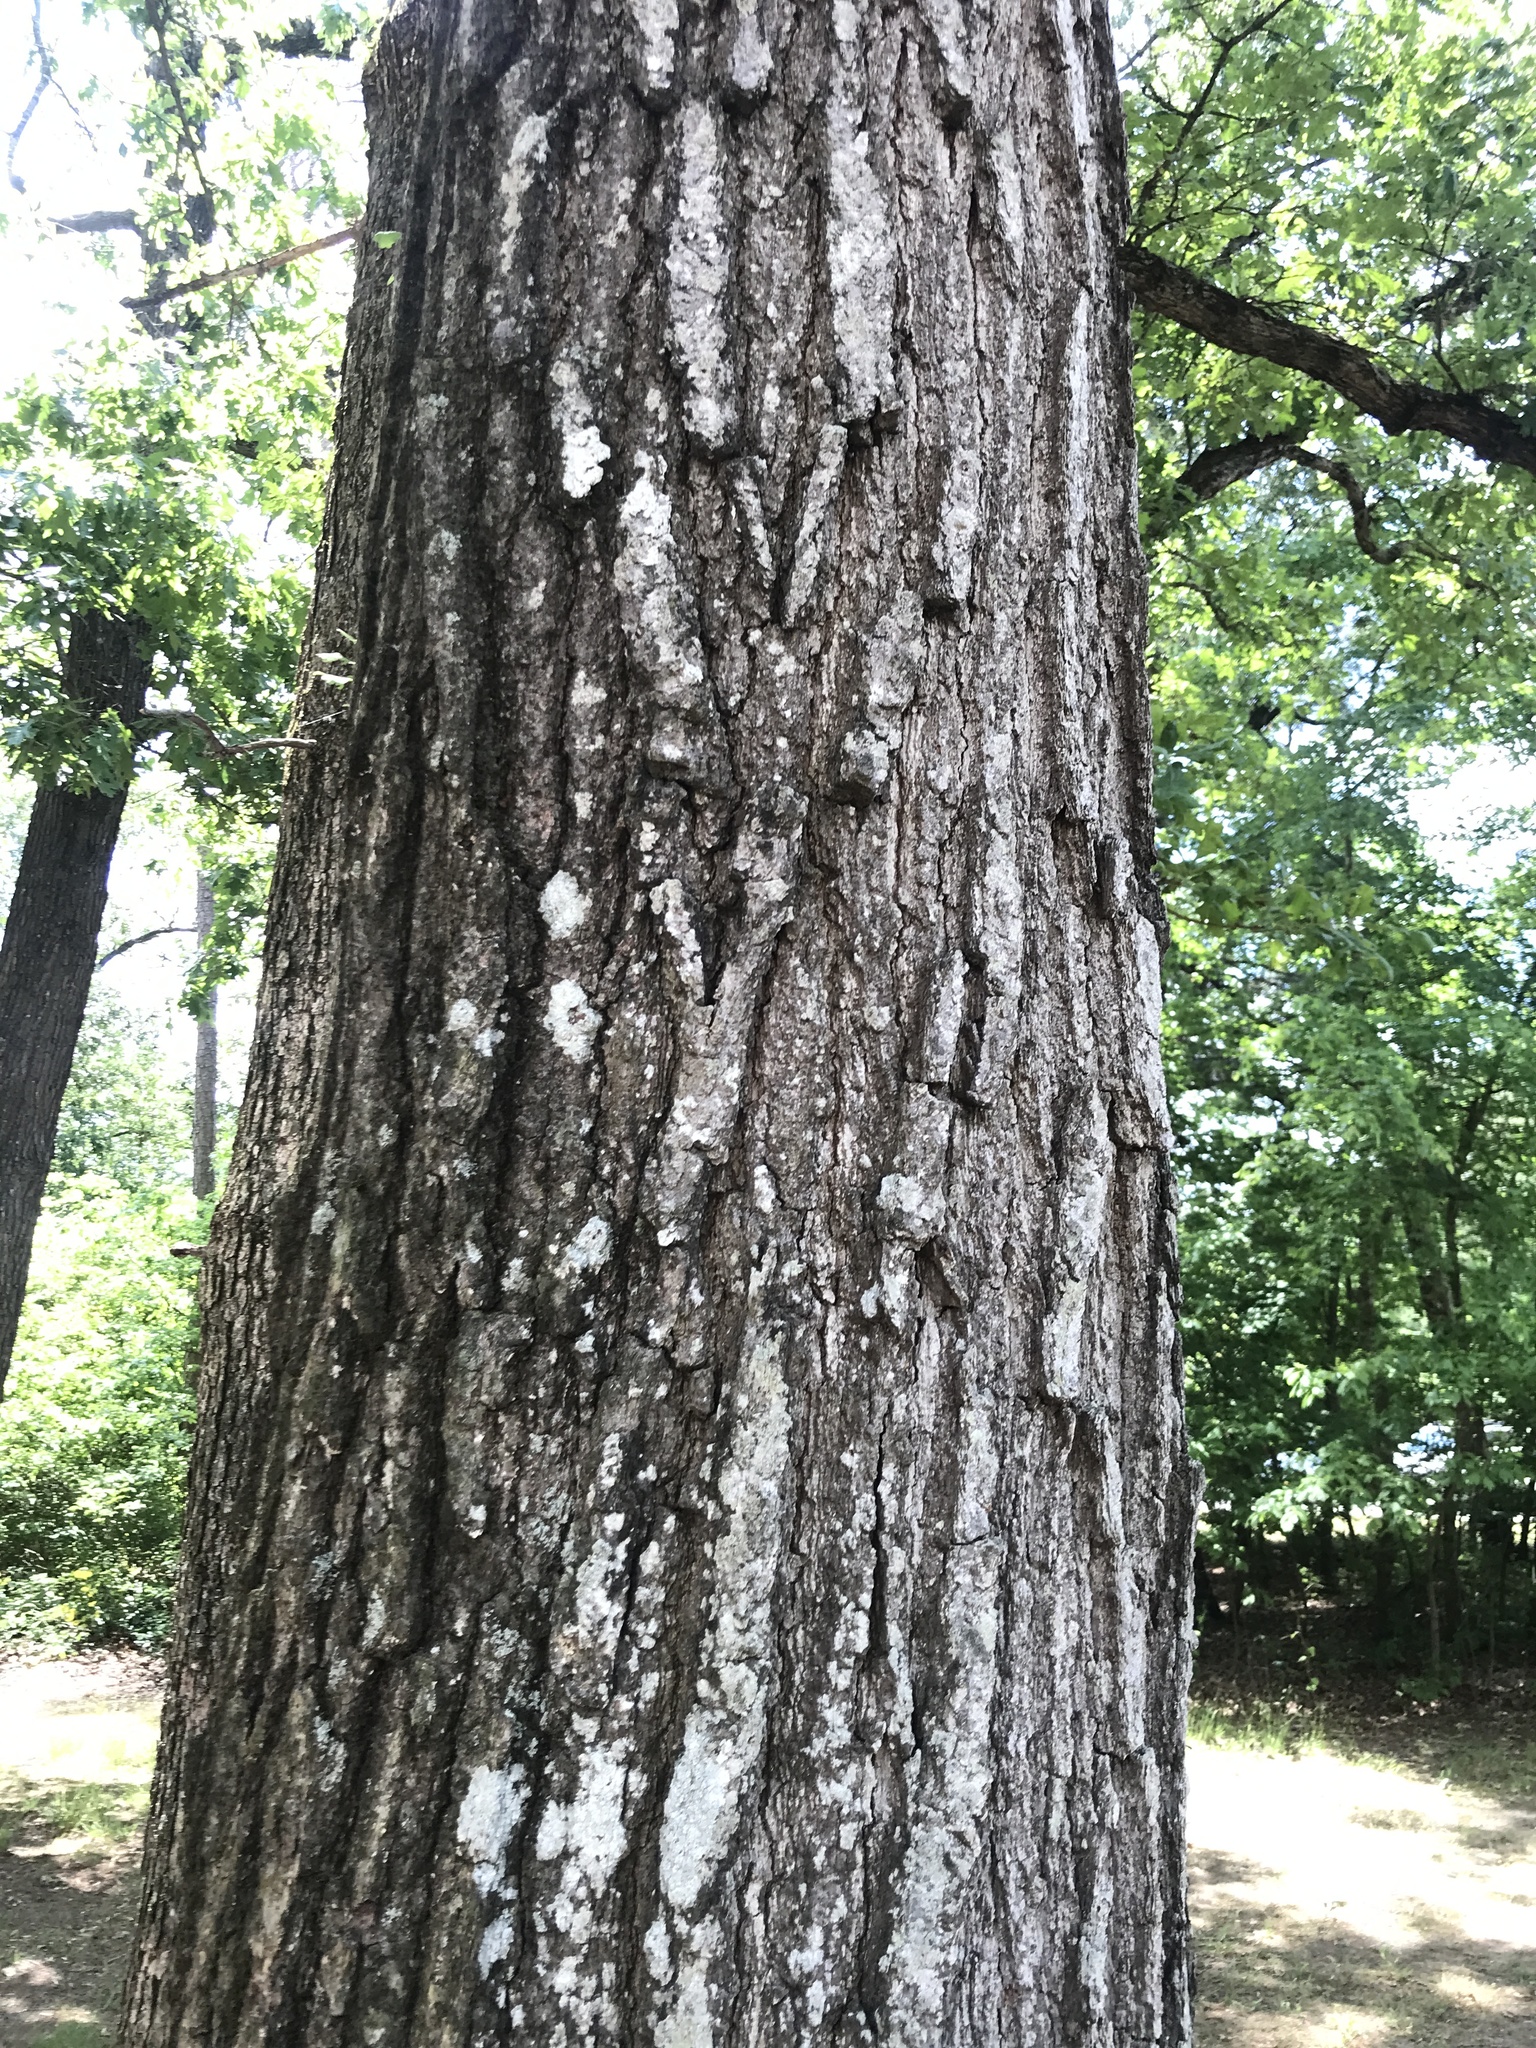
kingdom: Plantae
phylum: Tracheophyta
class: Magnoliopsida
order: Fagales
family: Fagaceae
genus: Quercus
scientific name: Quercus falcata
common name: Southern red oak
